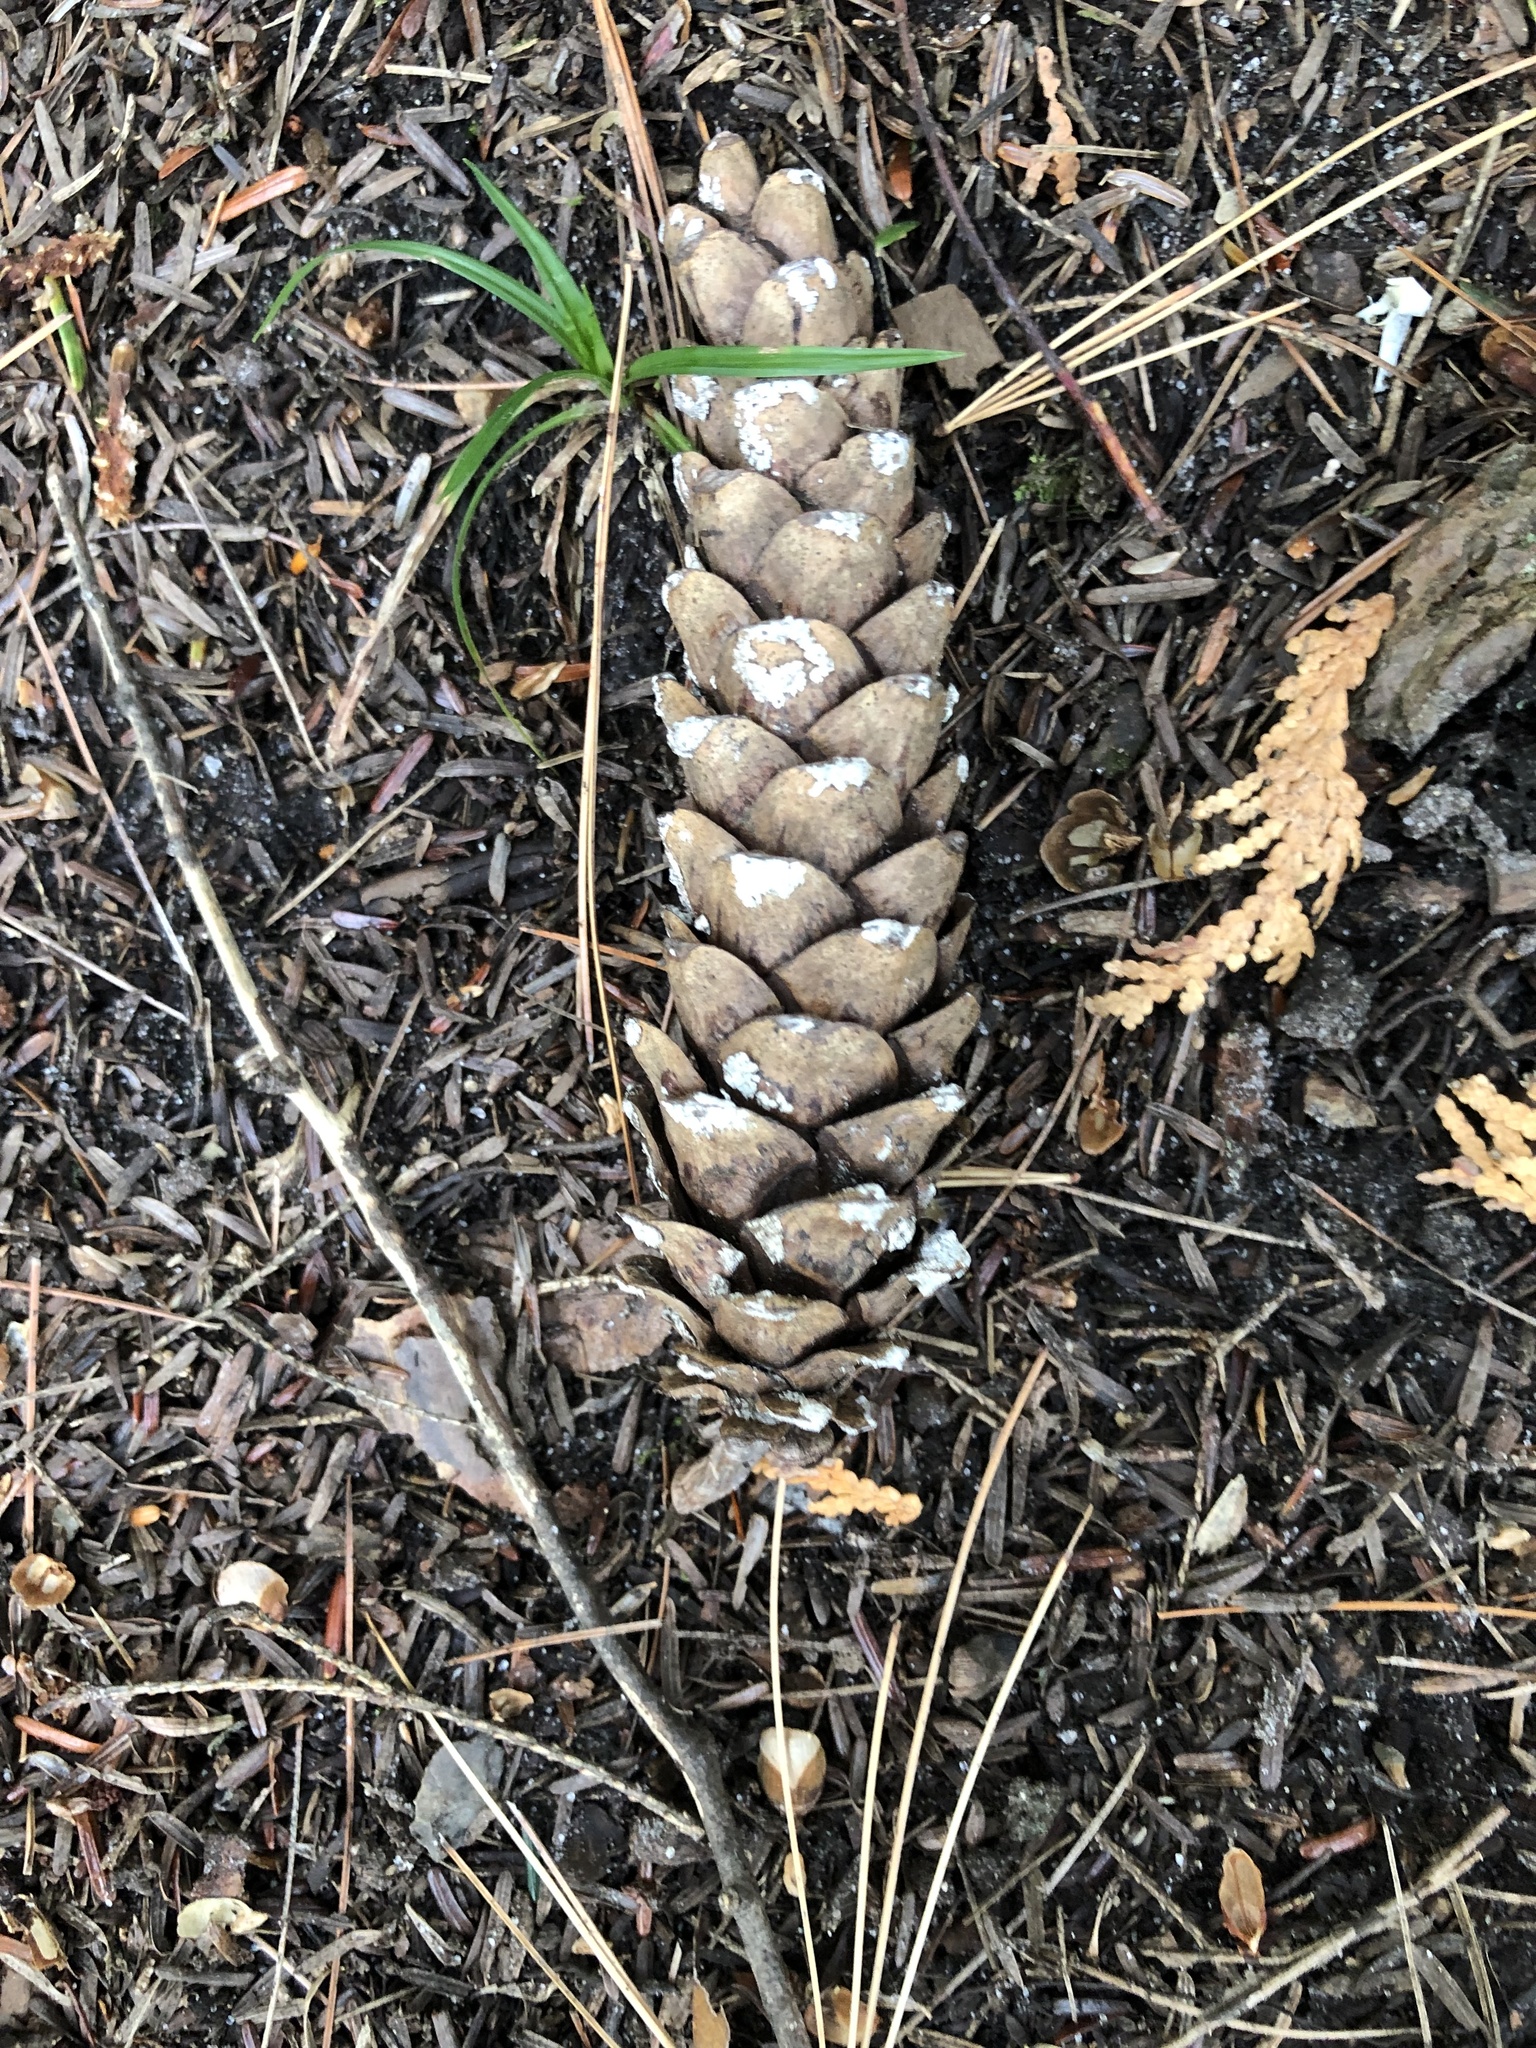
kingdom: Plantae
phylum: Tracheophyta
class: Pinopsida
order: Pinales
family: Pinaceae
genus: Pinus
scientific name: Pinus strobus
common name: Weymouth pine
